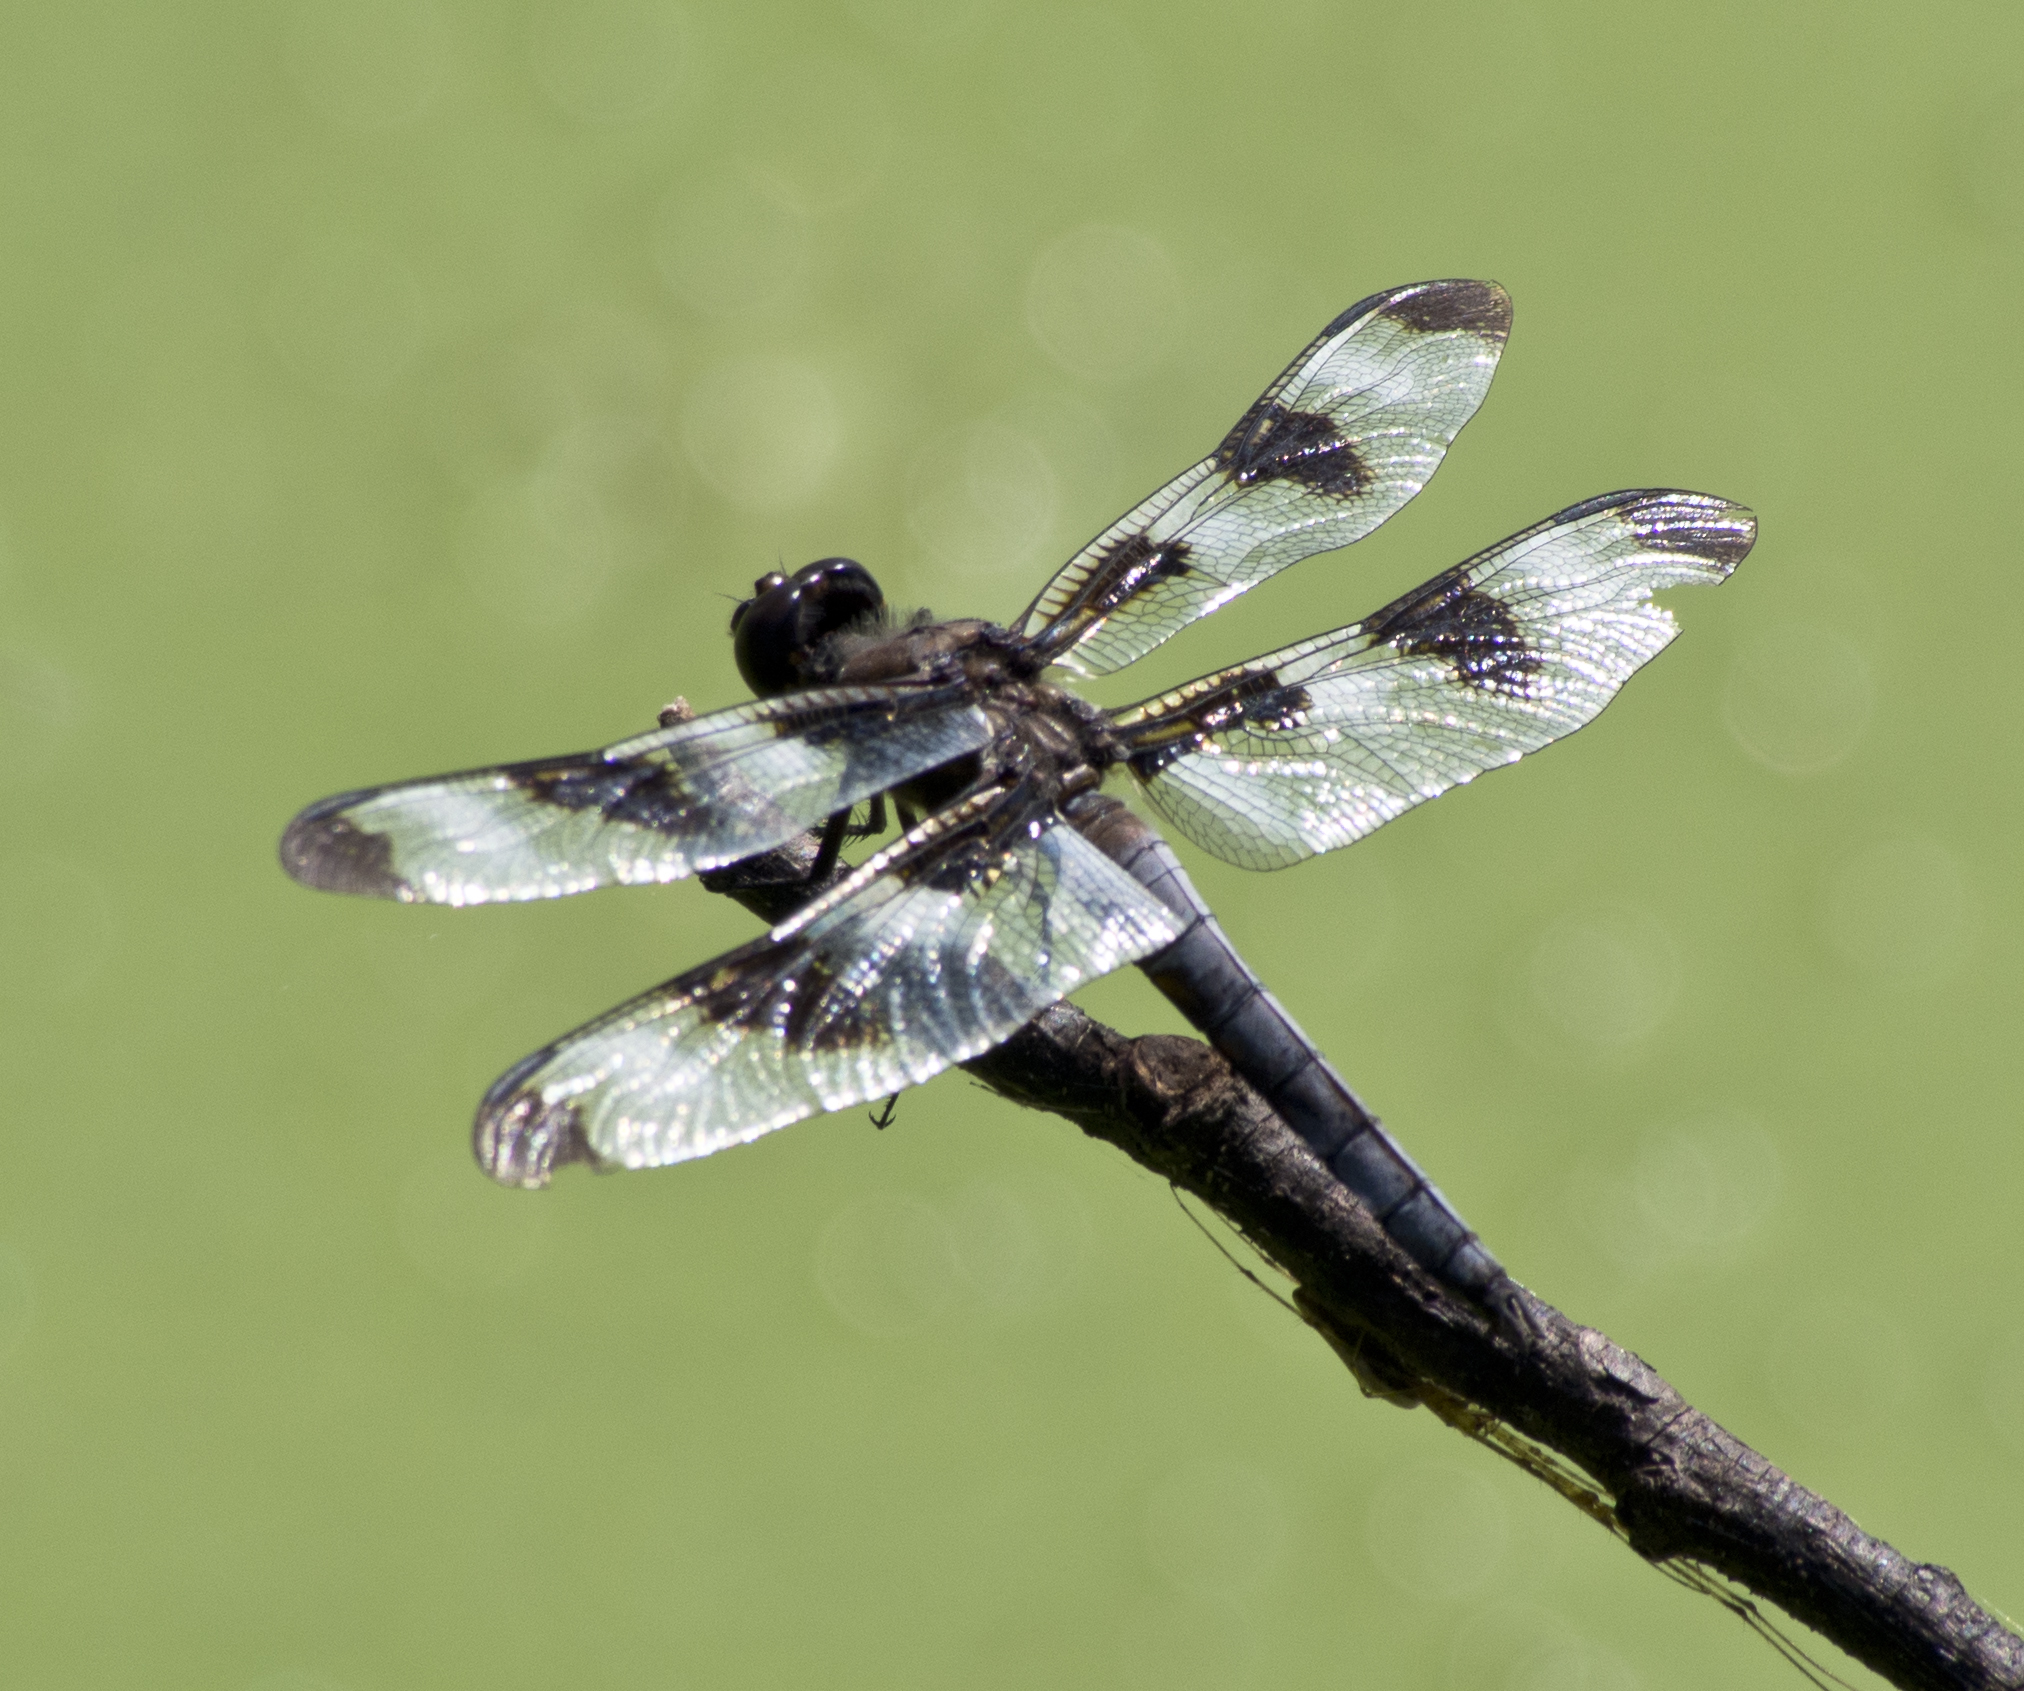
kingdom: Animalia
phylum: Arthropoda
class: Insecta
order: Odonata
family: Libellulidae
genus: Libellula
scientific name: Libellula pulchella
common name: Twelve-spotted skimmer
